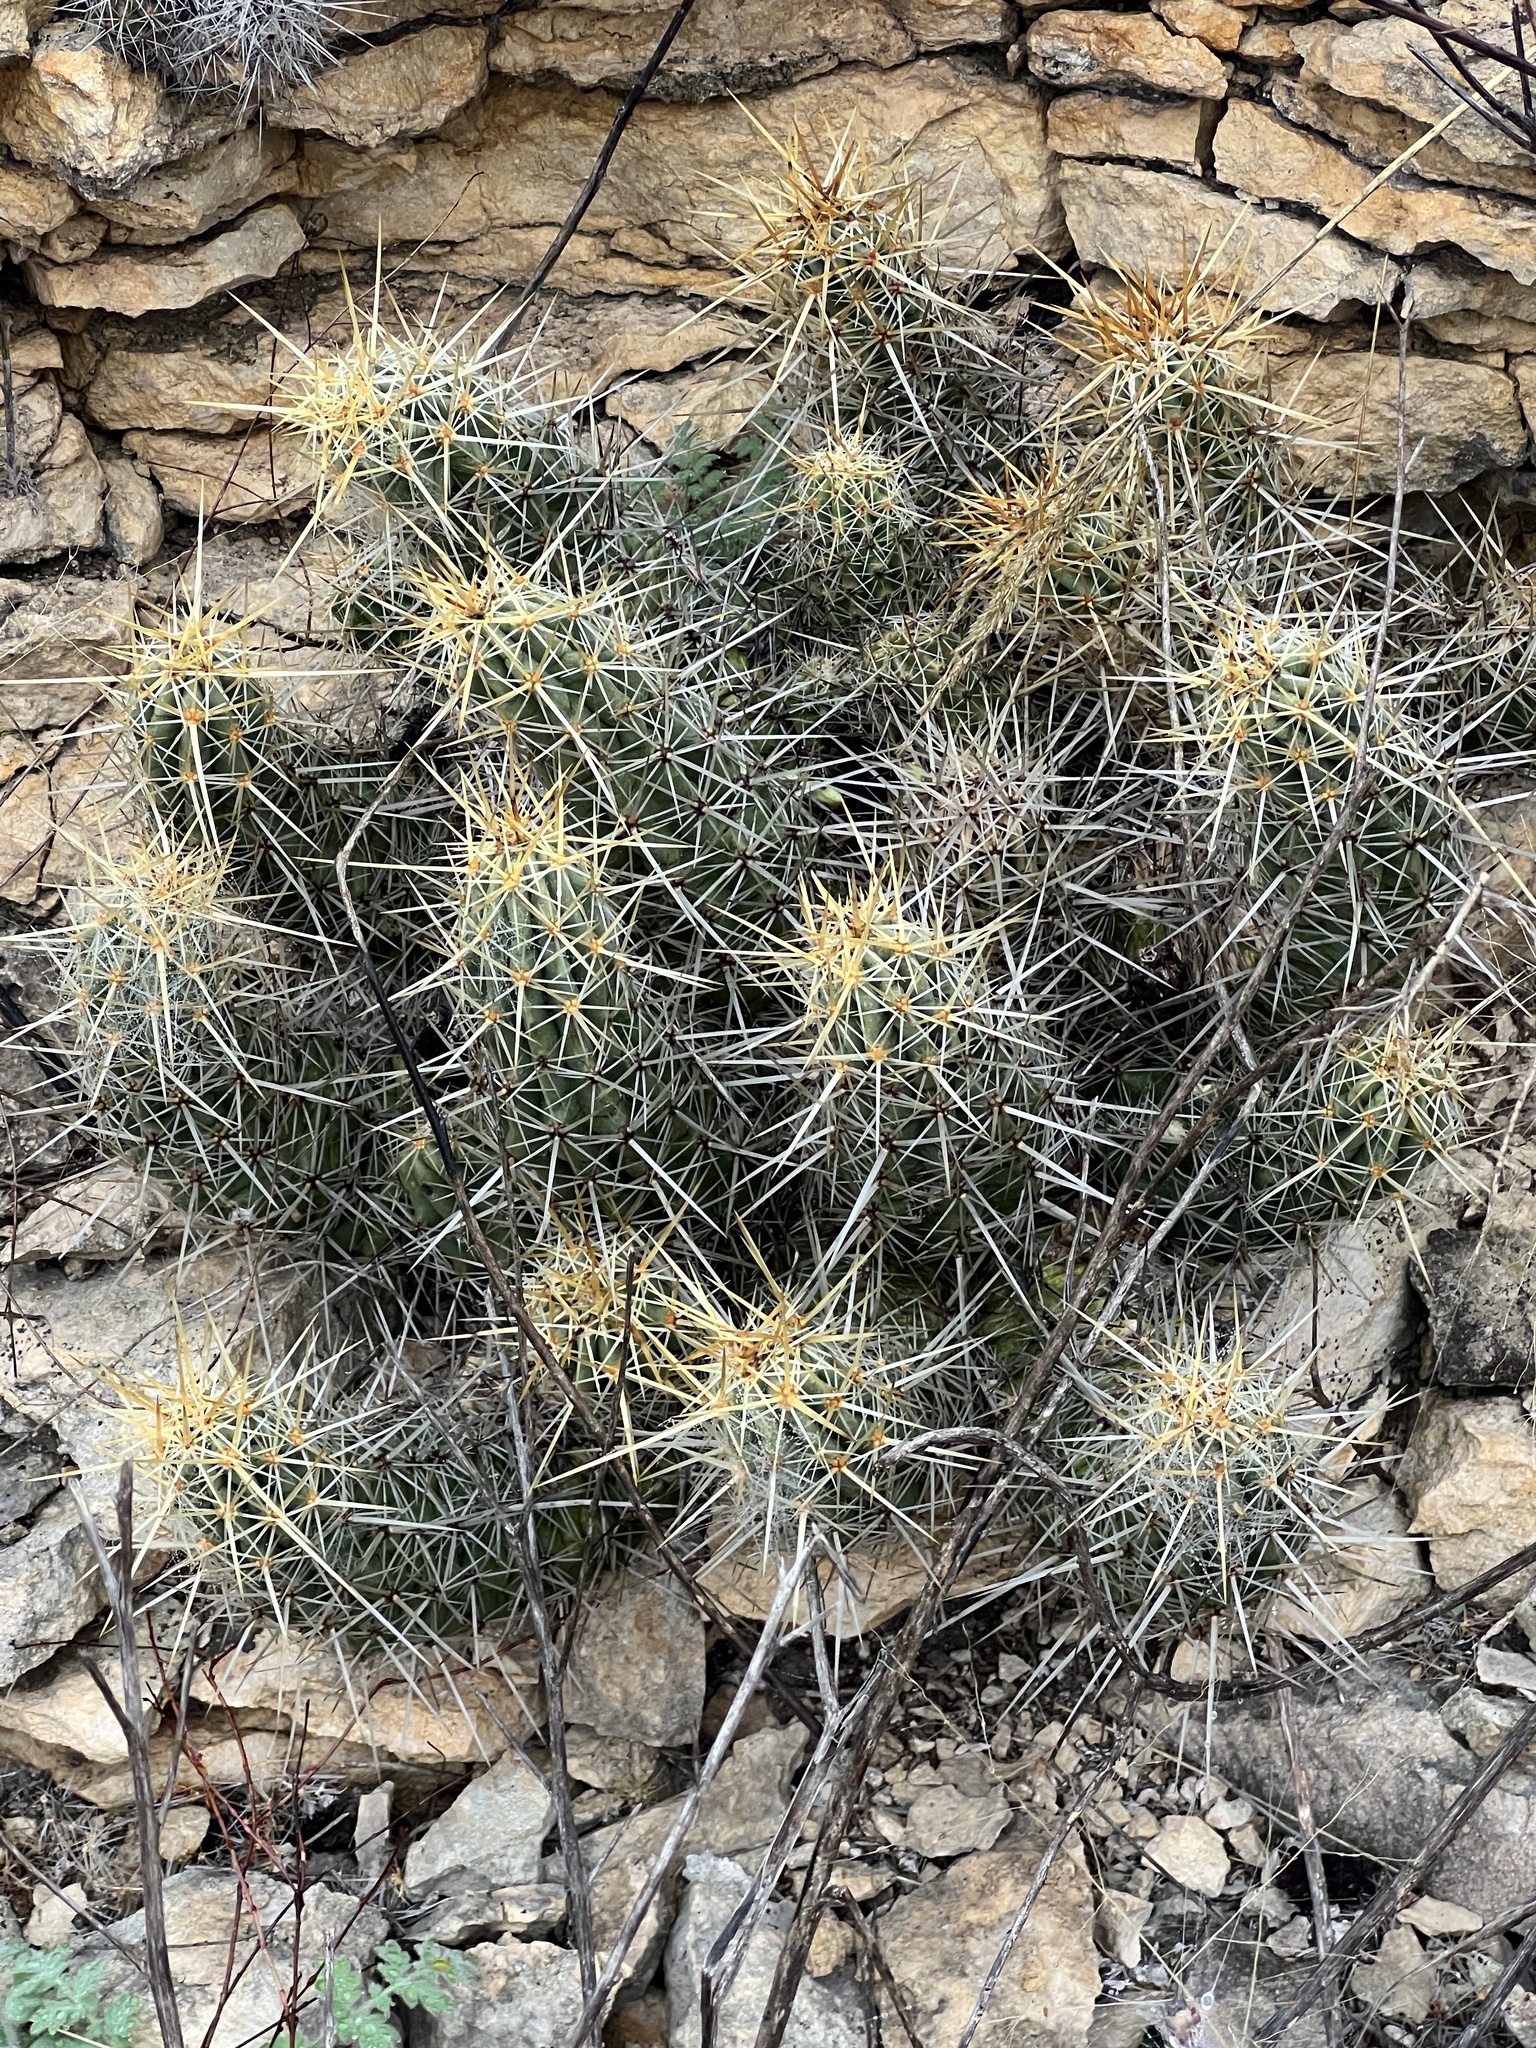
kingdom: Plantae
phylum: Tracheophyta
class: Magnoliopsida
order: Caryophyllales
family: Cactaceae
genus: Echinocereus
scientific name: Echinocereus enneacanthus
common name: Pitaya
